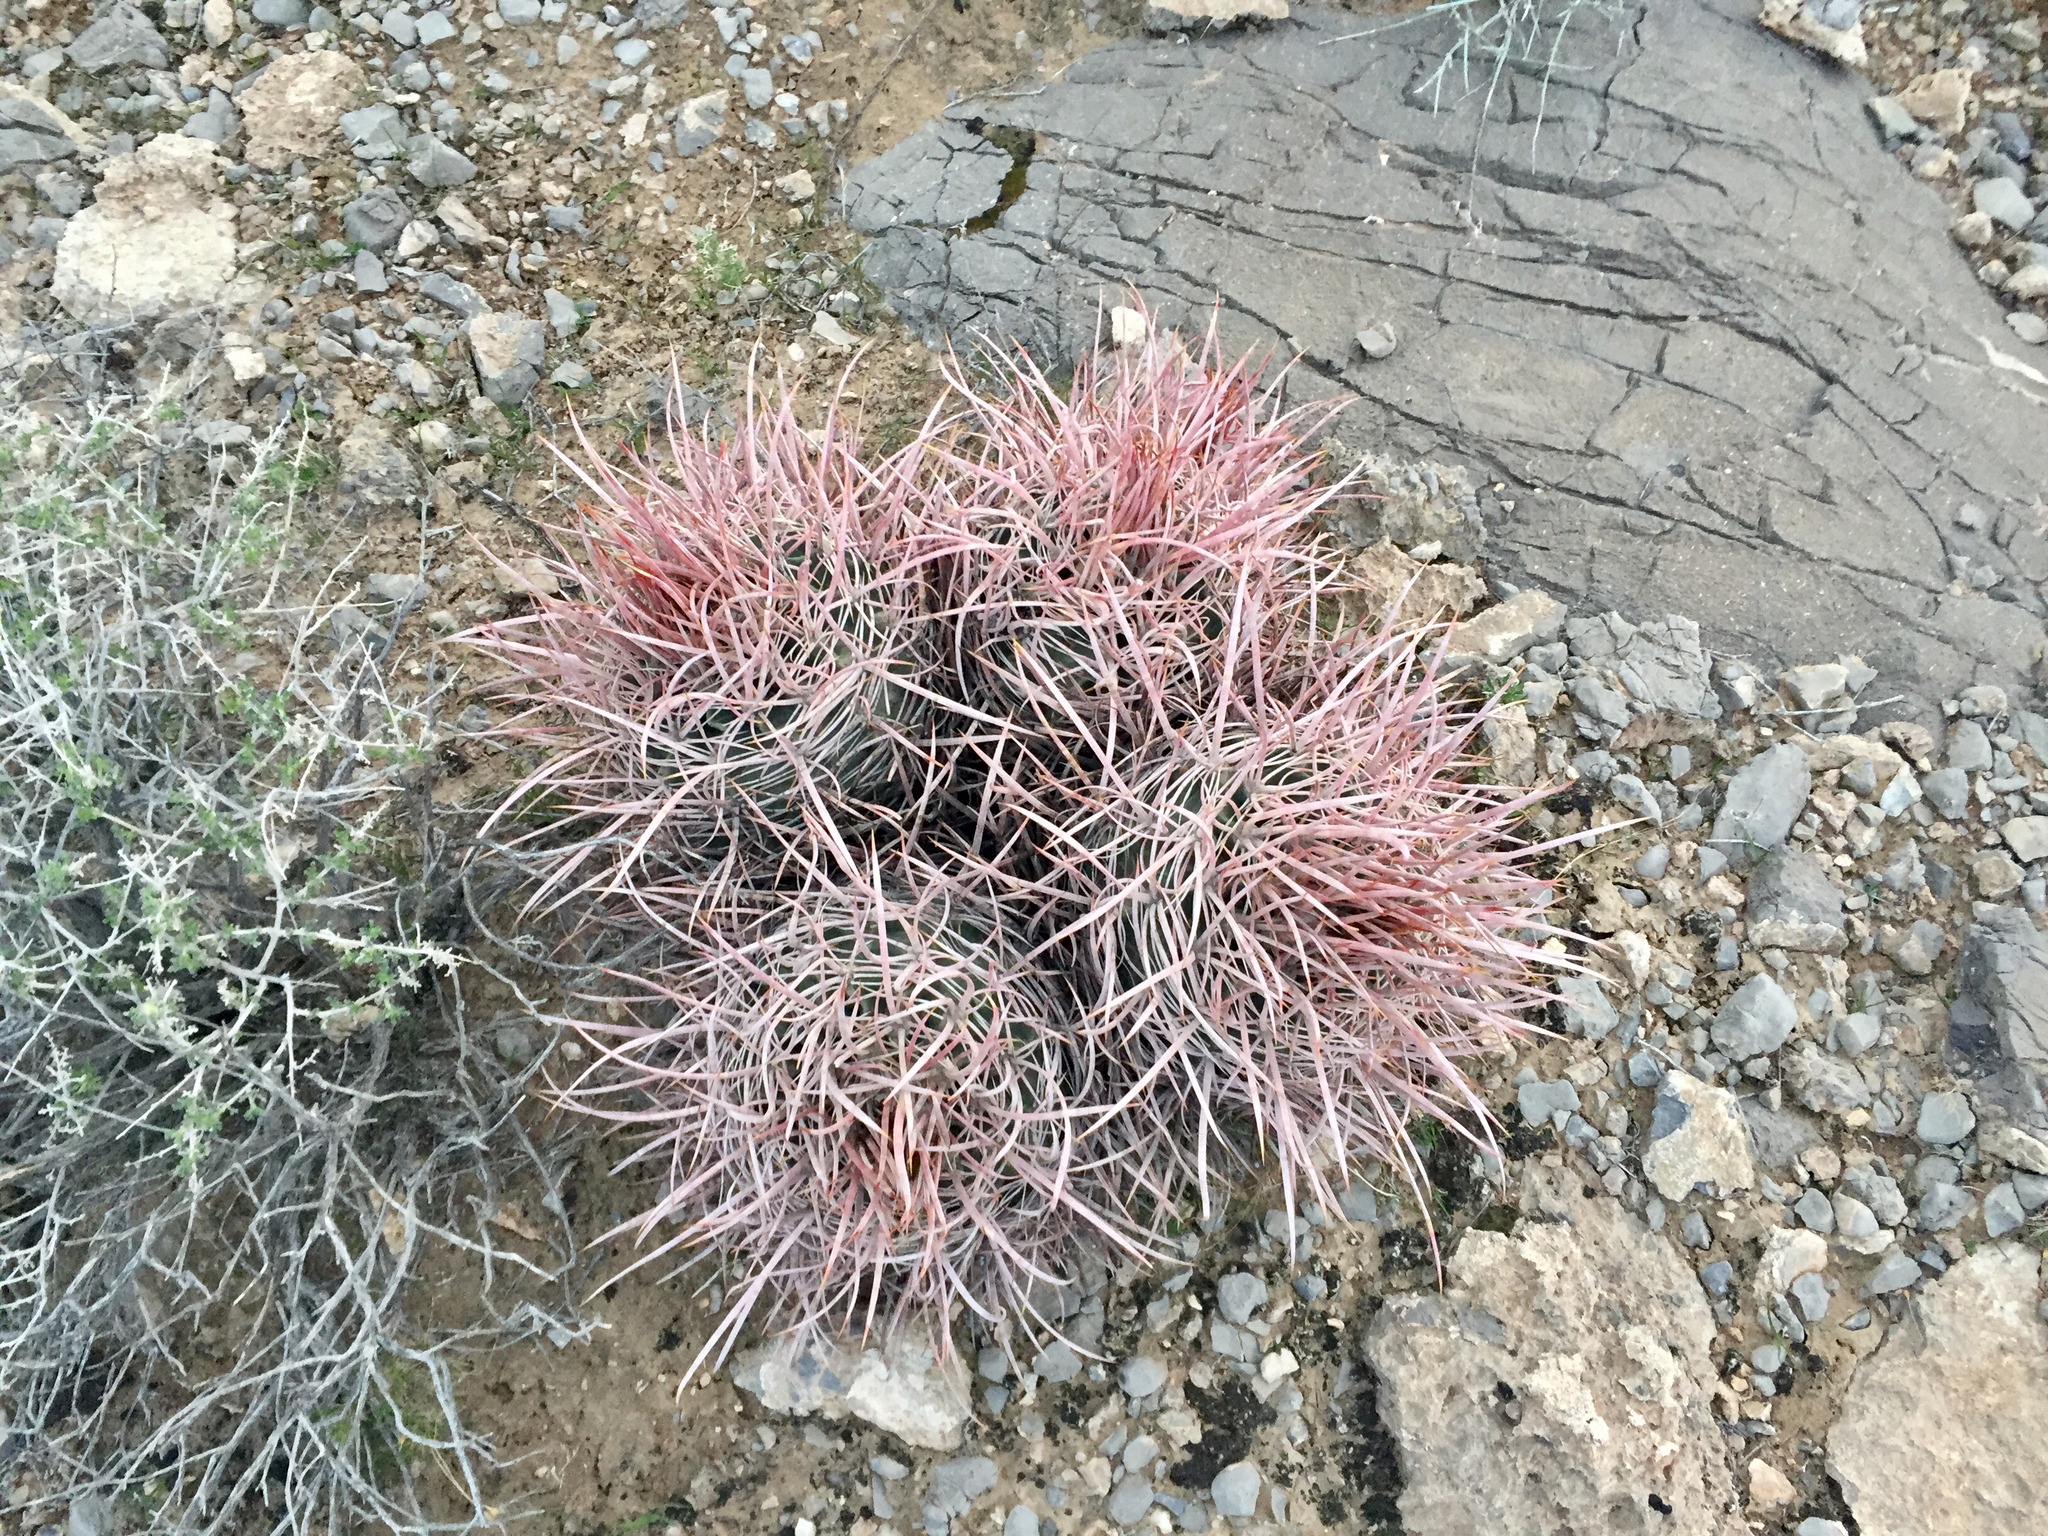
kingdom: Plantae
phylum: Tracheophyta
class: Magnoliopsida
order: Caryophyllales
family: Cactaceae
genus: Echinocactus
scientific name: Echinocactus polycephalus
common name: Cottontop cactus
